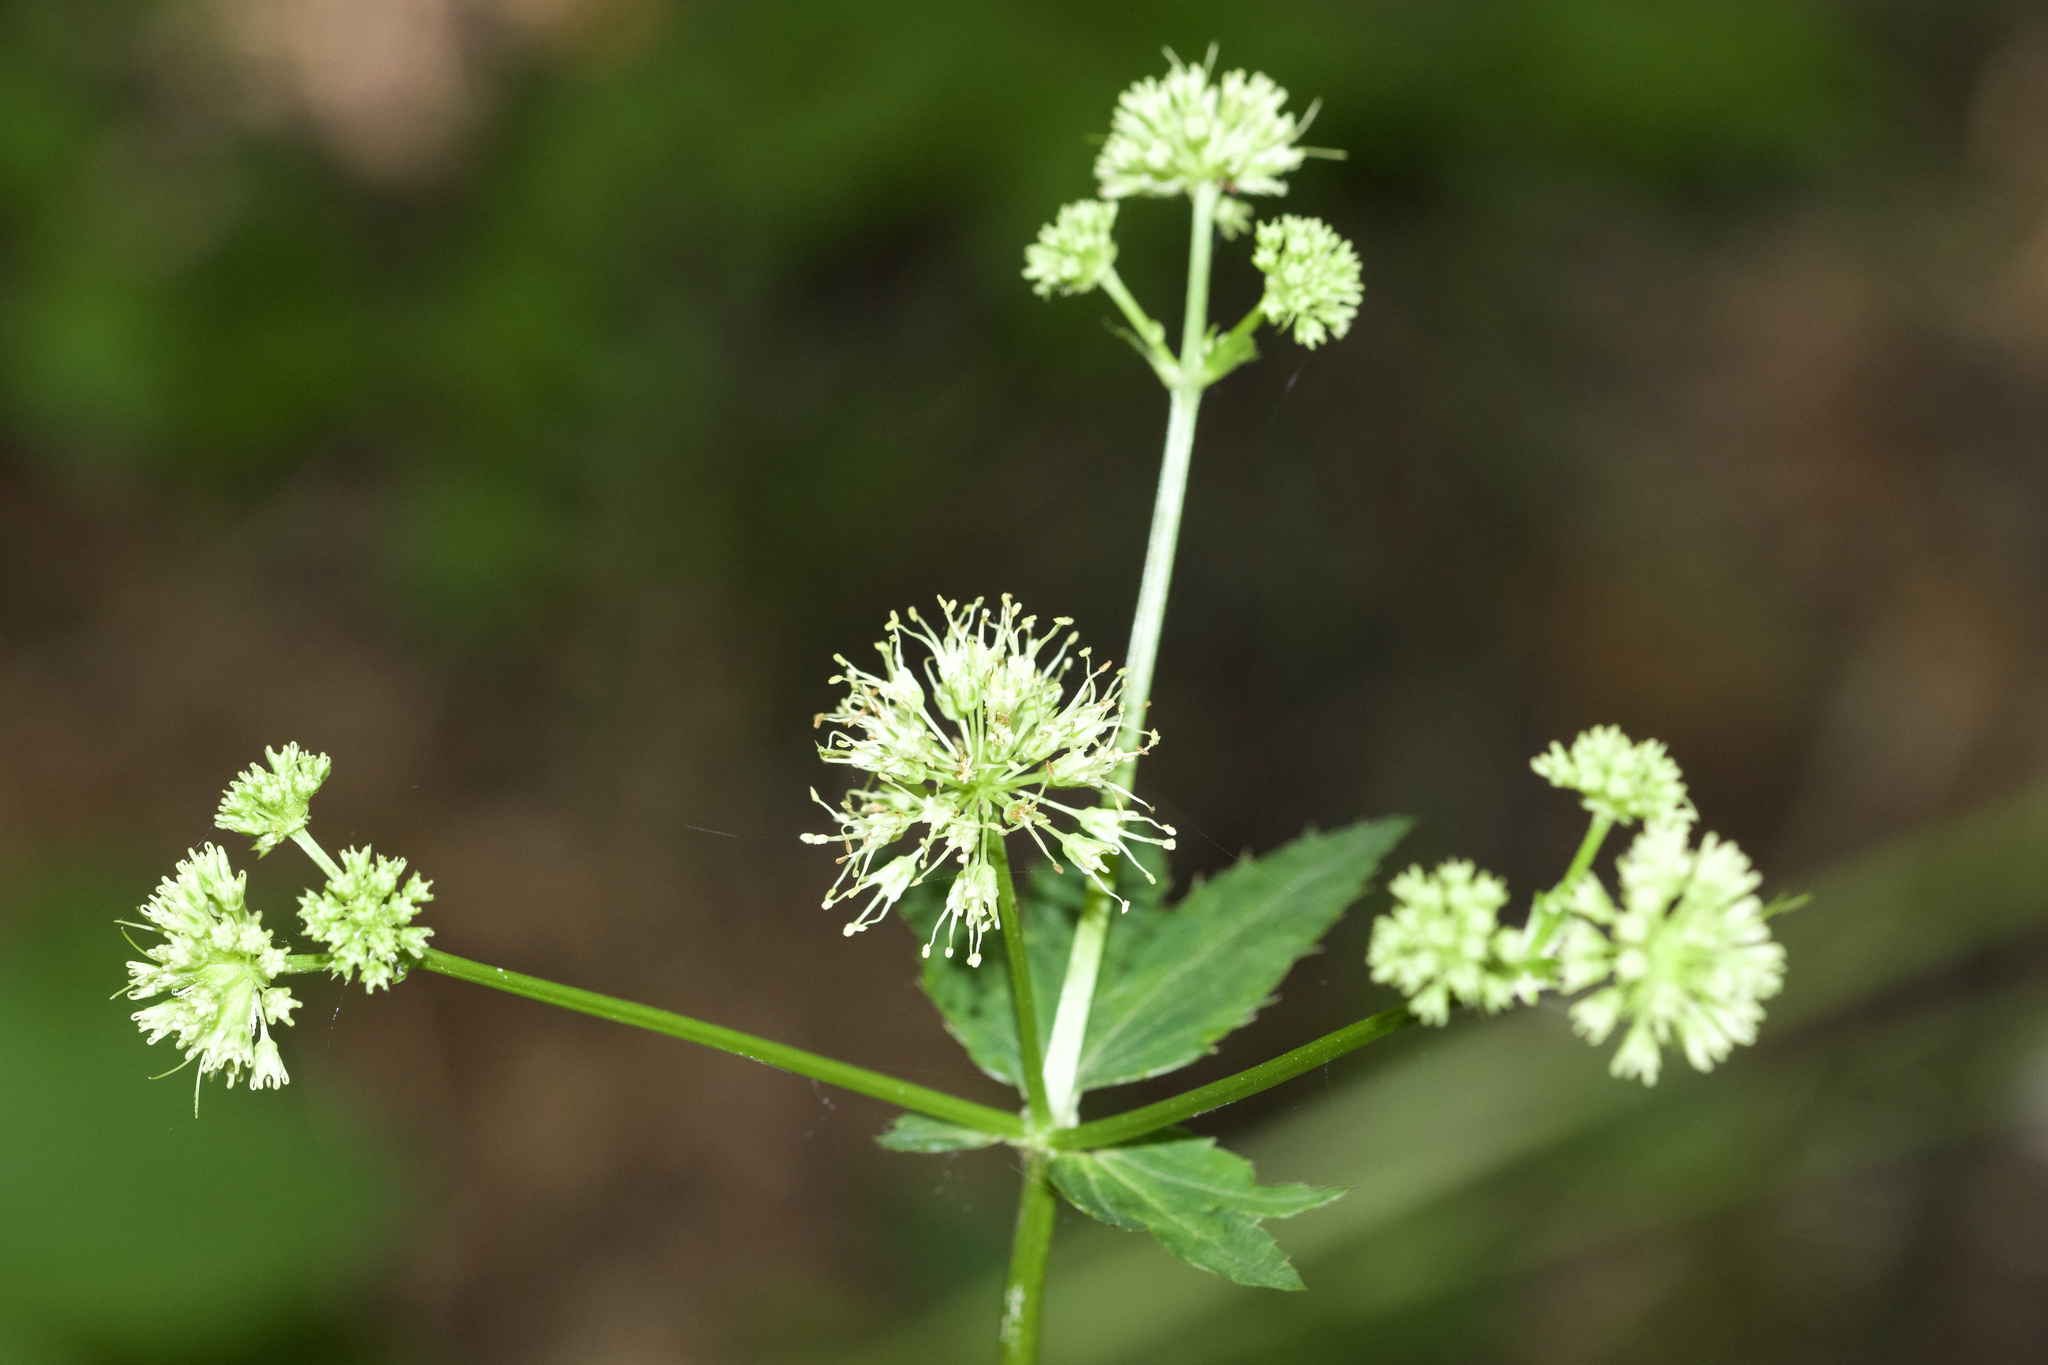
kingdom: Plantae
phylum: Tracheophyta
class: Magnoliopsida
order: Apiales
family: Apiaceae
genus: Sanicula
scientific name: Sanicula marilandica
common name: Black snakeroot
